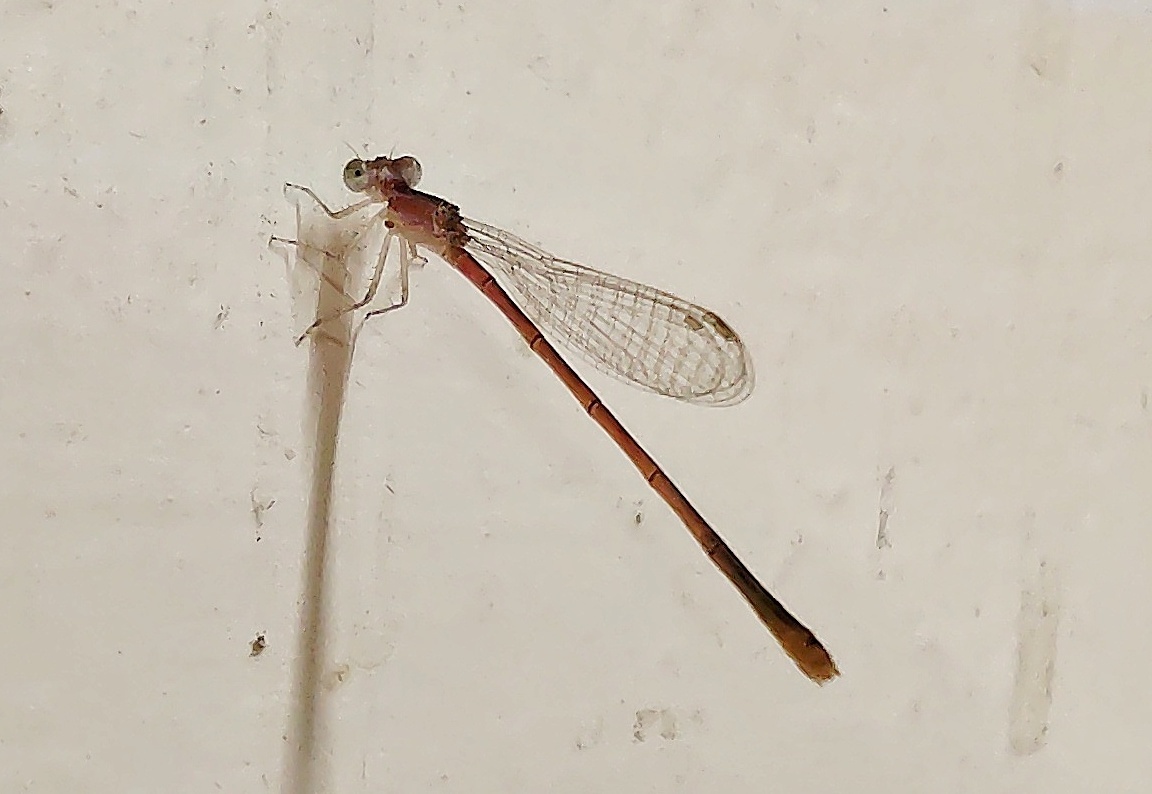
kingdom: Animalia
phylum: Arthropoda
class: Insecta
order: Odonata
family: Coenagrionidae
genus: Agriocnemis
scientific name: Agriocnemis pygmaea
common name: Pygmy wisp
